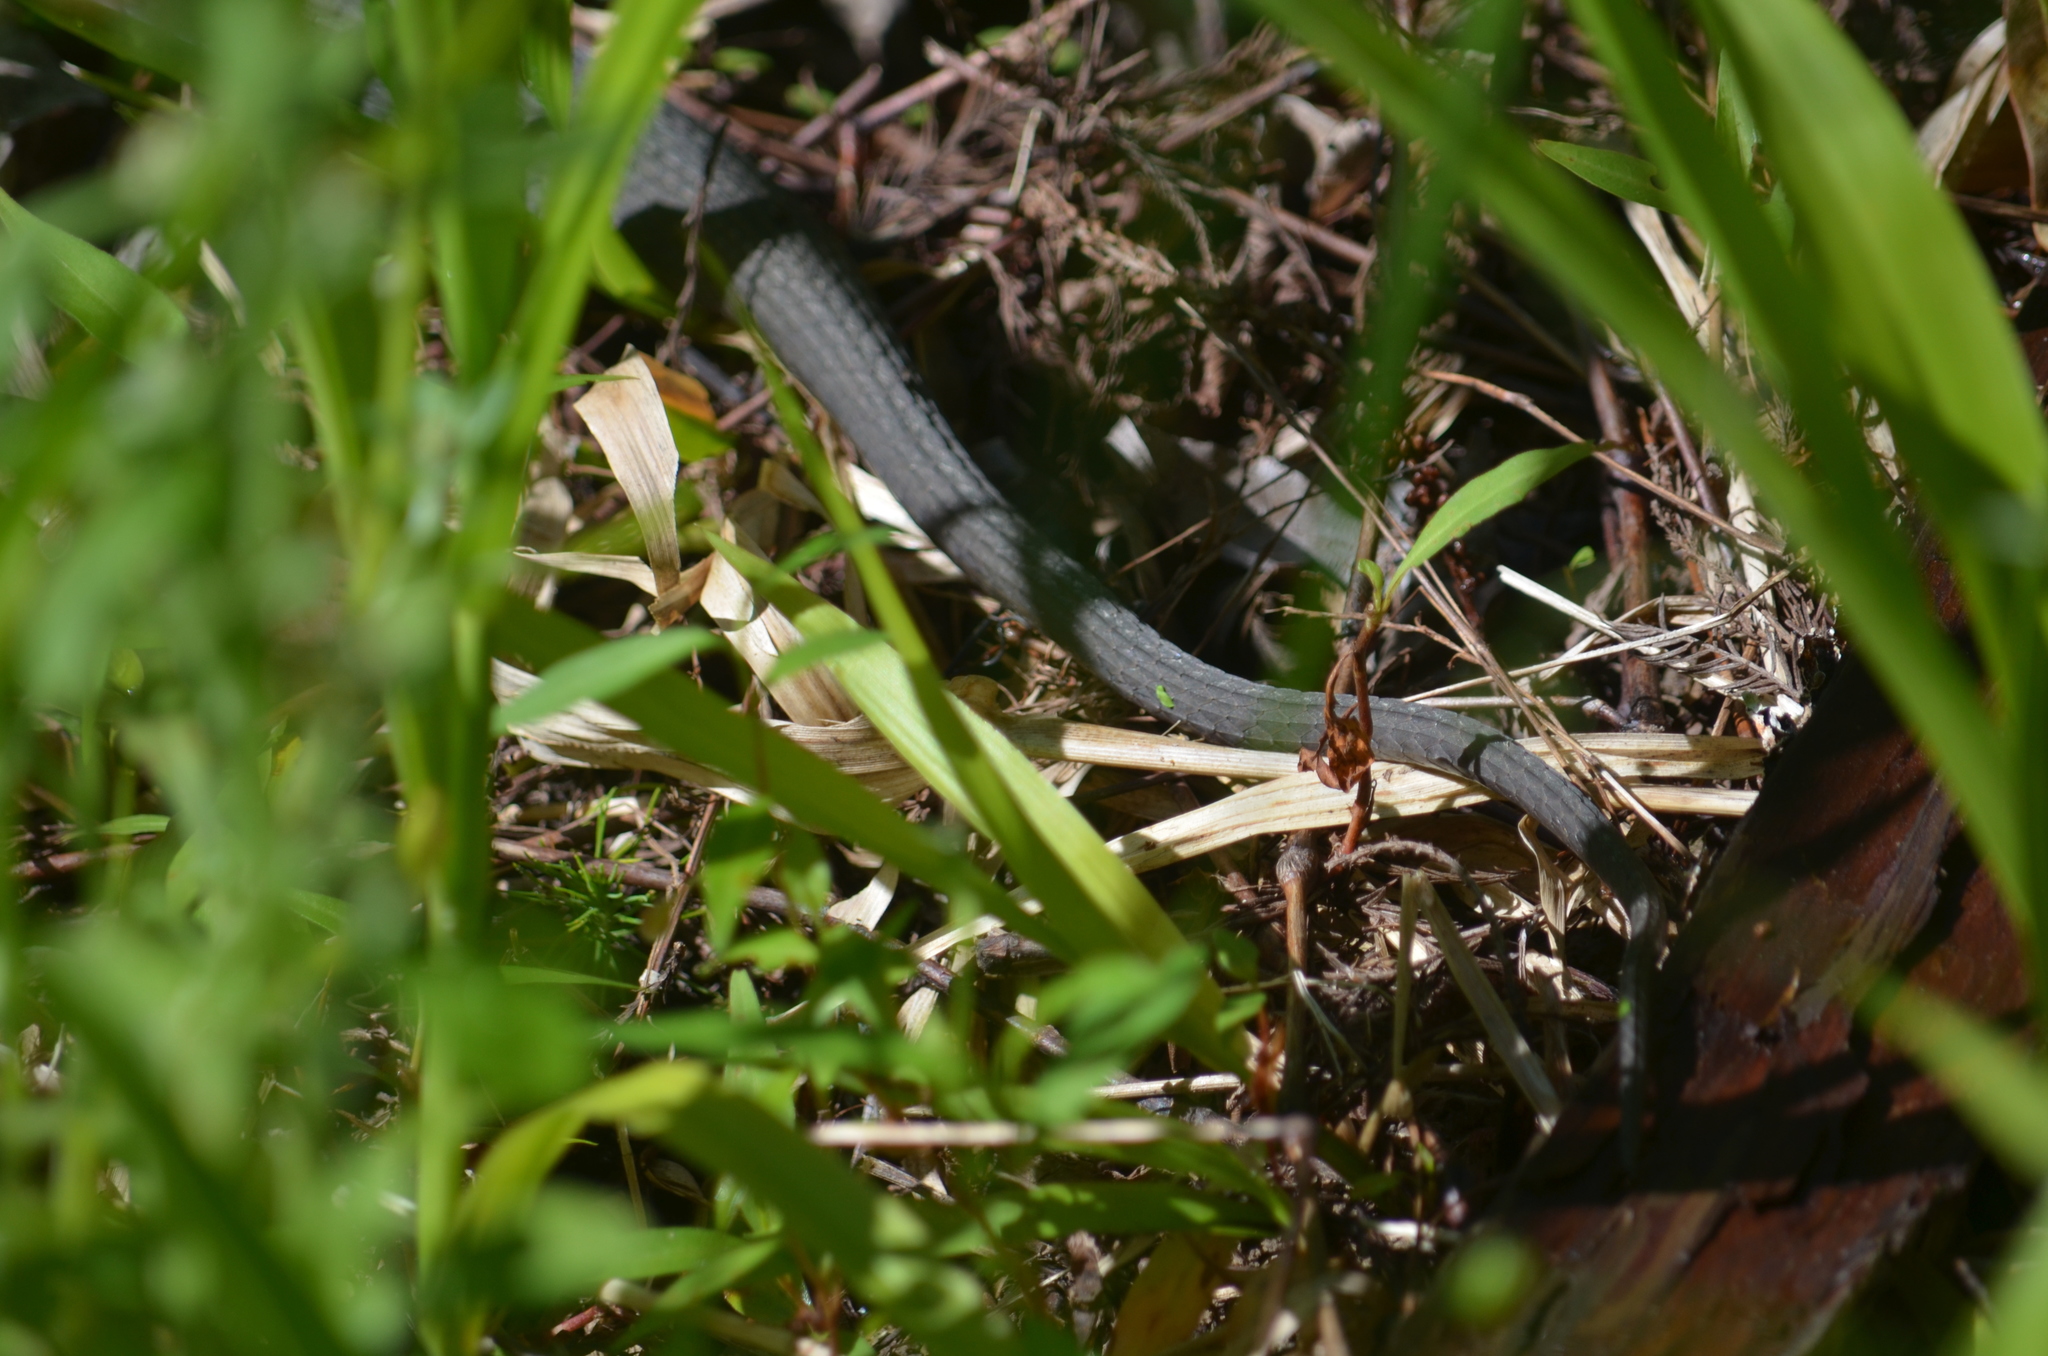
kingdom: Animalia
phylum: Chordata
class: Squamata
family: Colubridae
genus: Nerodia
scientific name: Nerodia erythrogaster
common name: Plainbelly water snake
